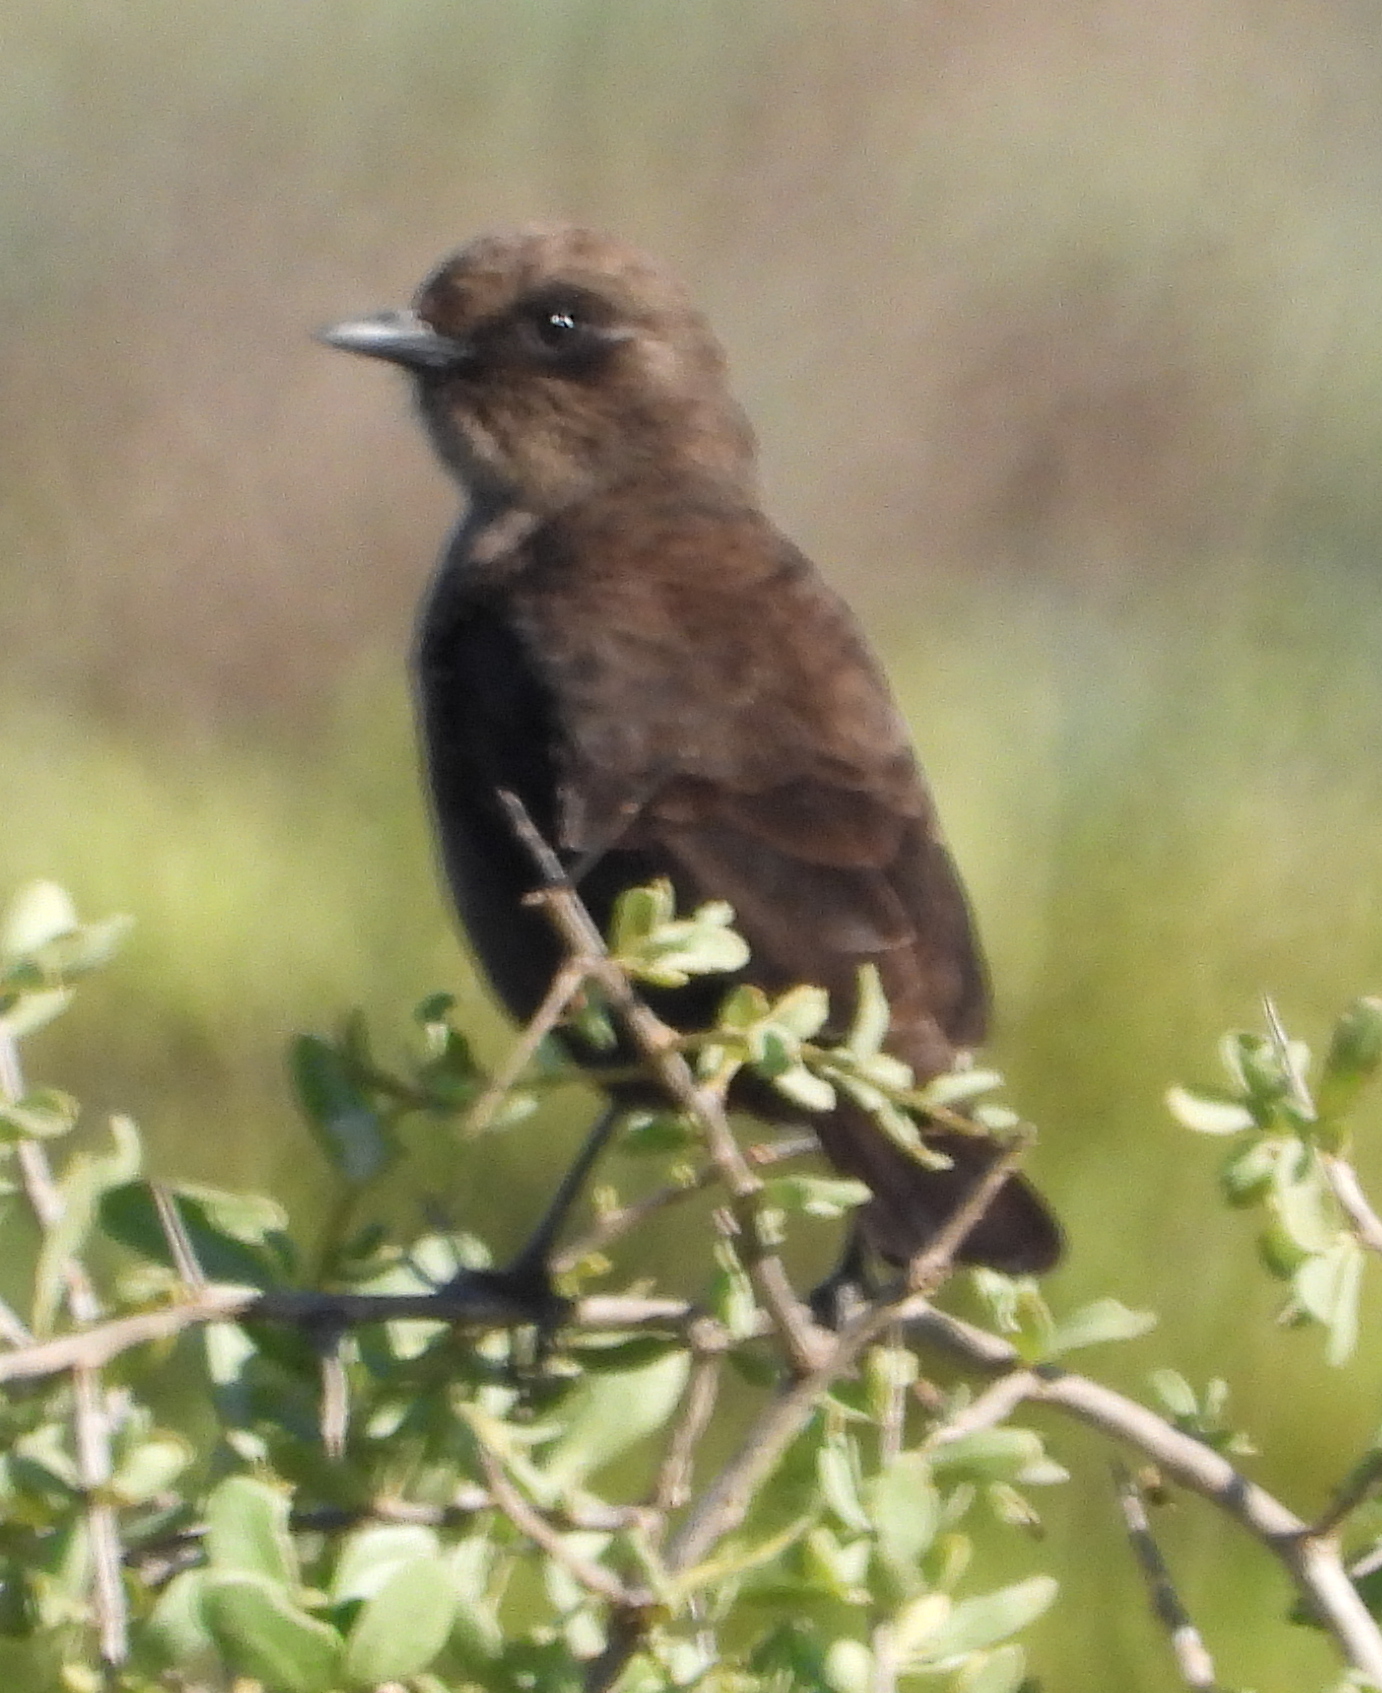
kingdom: Animalia
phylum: Chordata
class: Aves
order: Passeriformes
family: Muscicapidae
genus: Myrmecocichla
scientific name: Myrmecocichla formicivora
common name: Ant-eating chat
